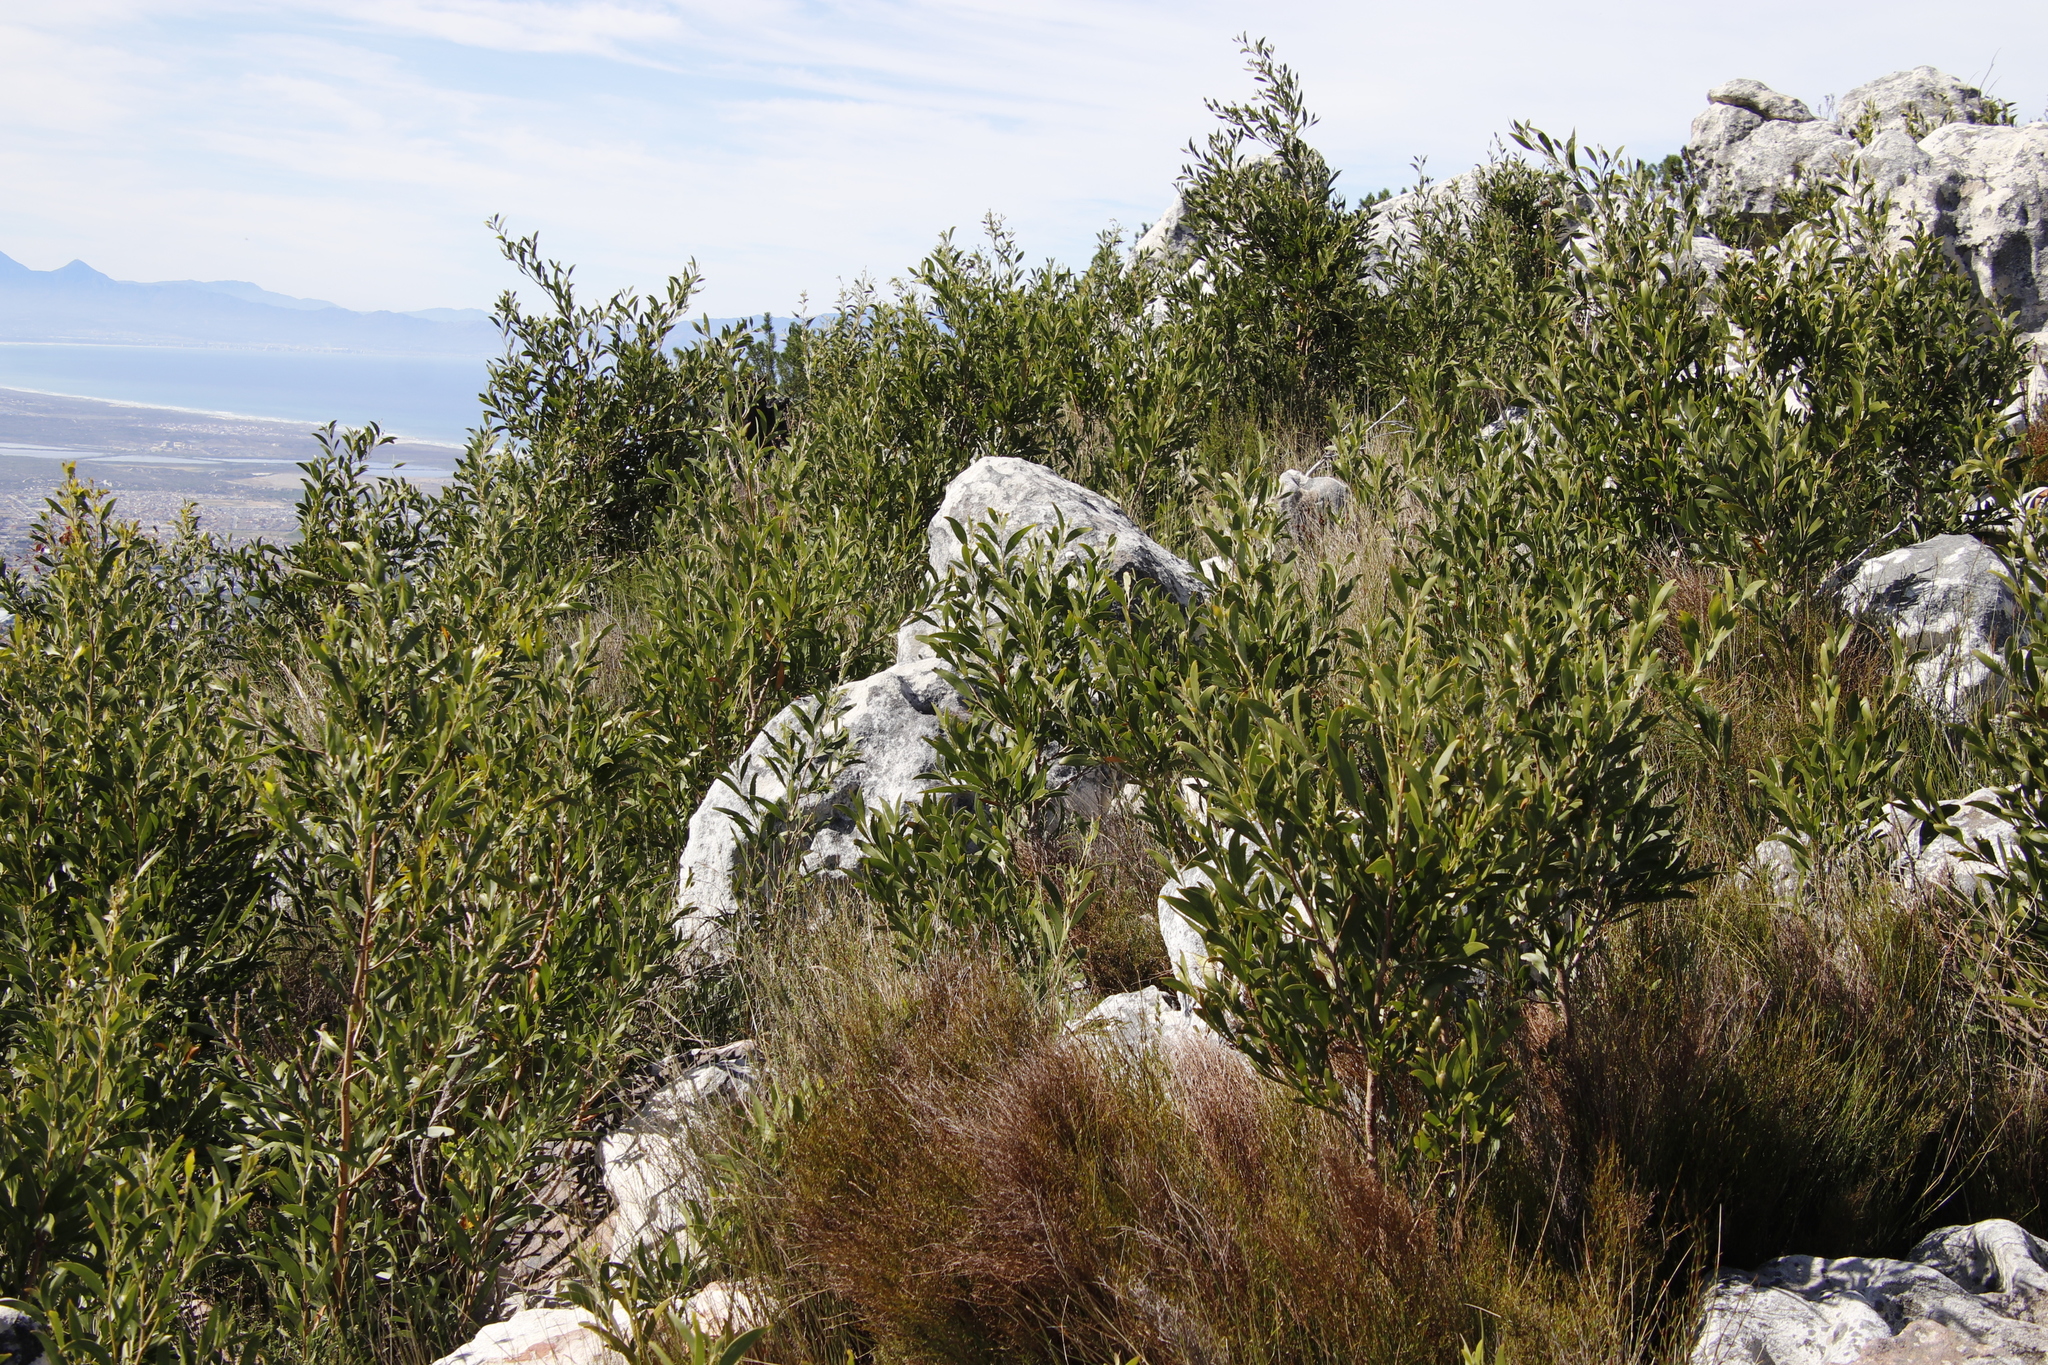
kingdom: Plantae
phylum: Tracheophyta
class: Magnoliopsida
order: Fabales
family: Fabaceae
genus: Acacia
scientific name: Acacia melanoxylon
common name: Blackwood
